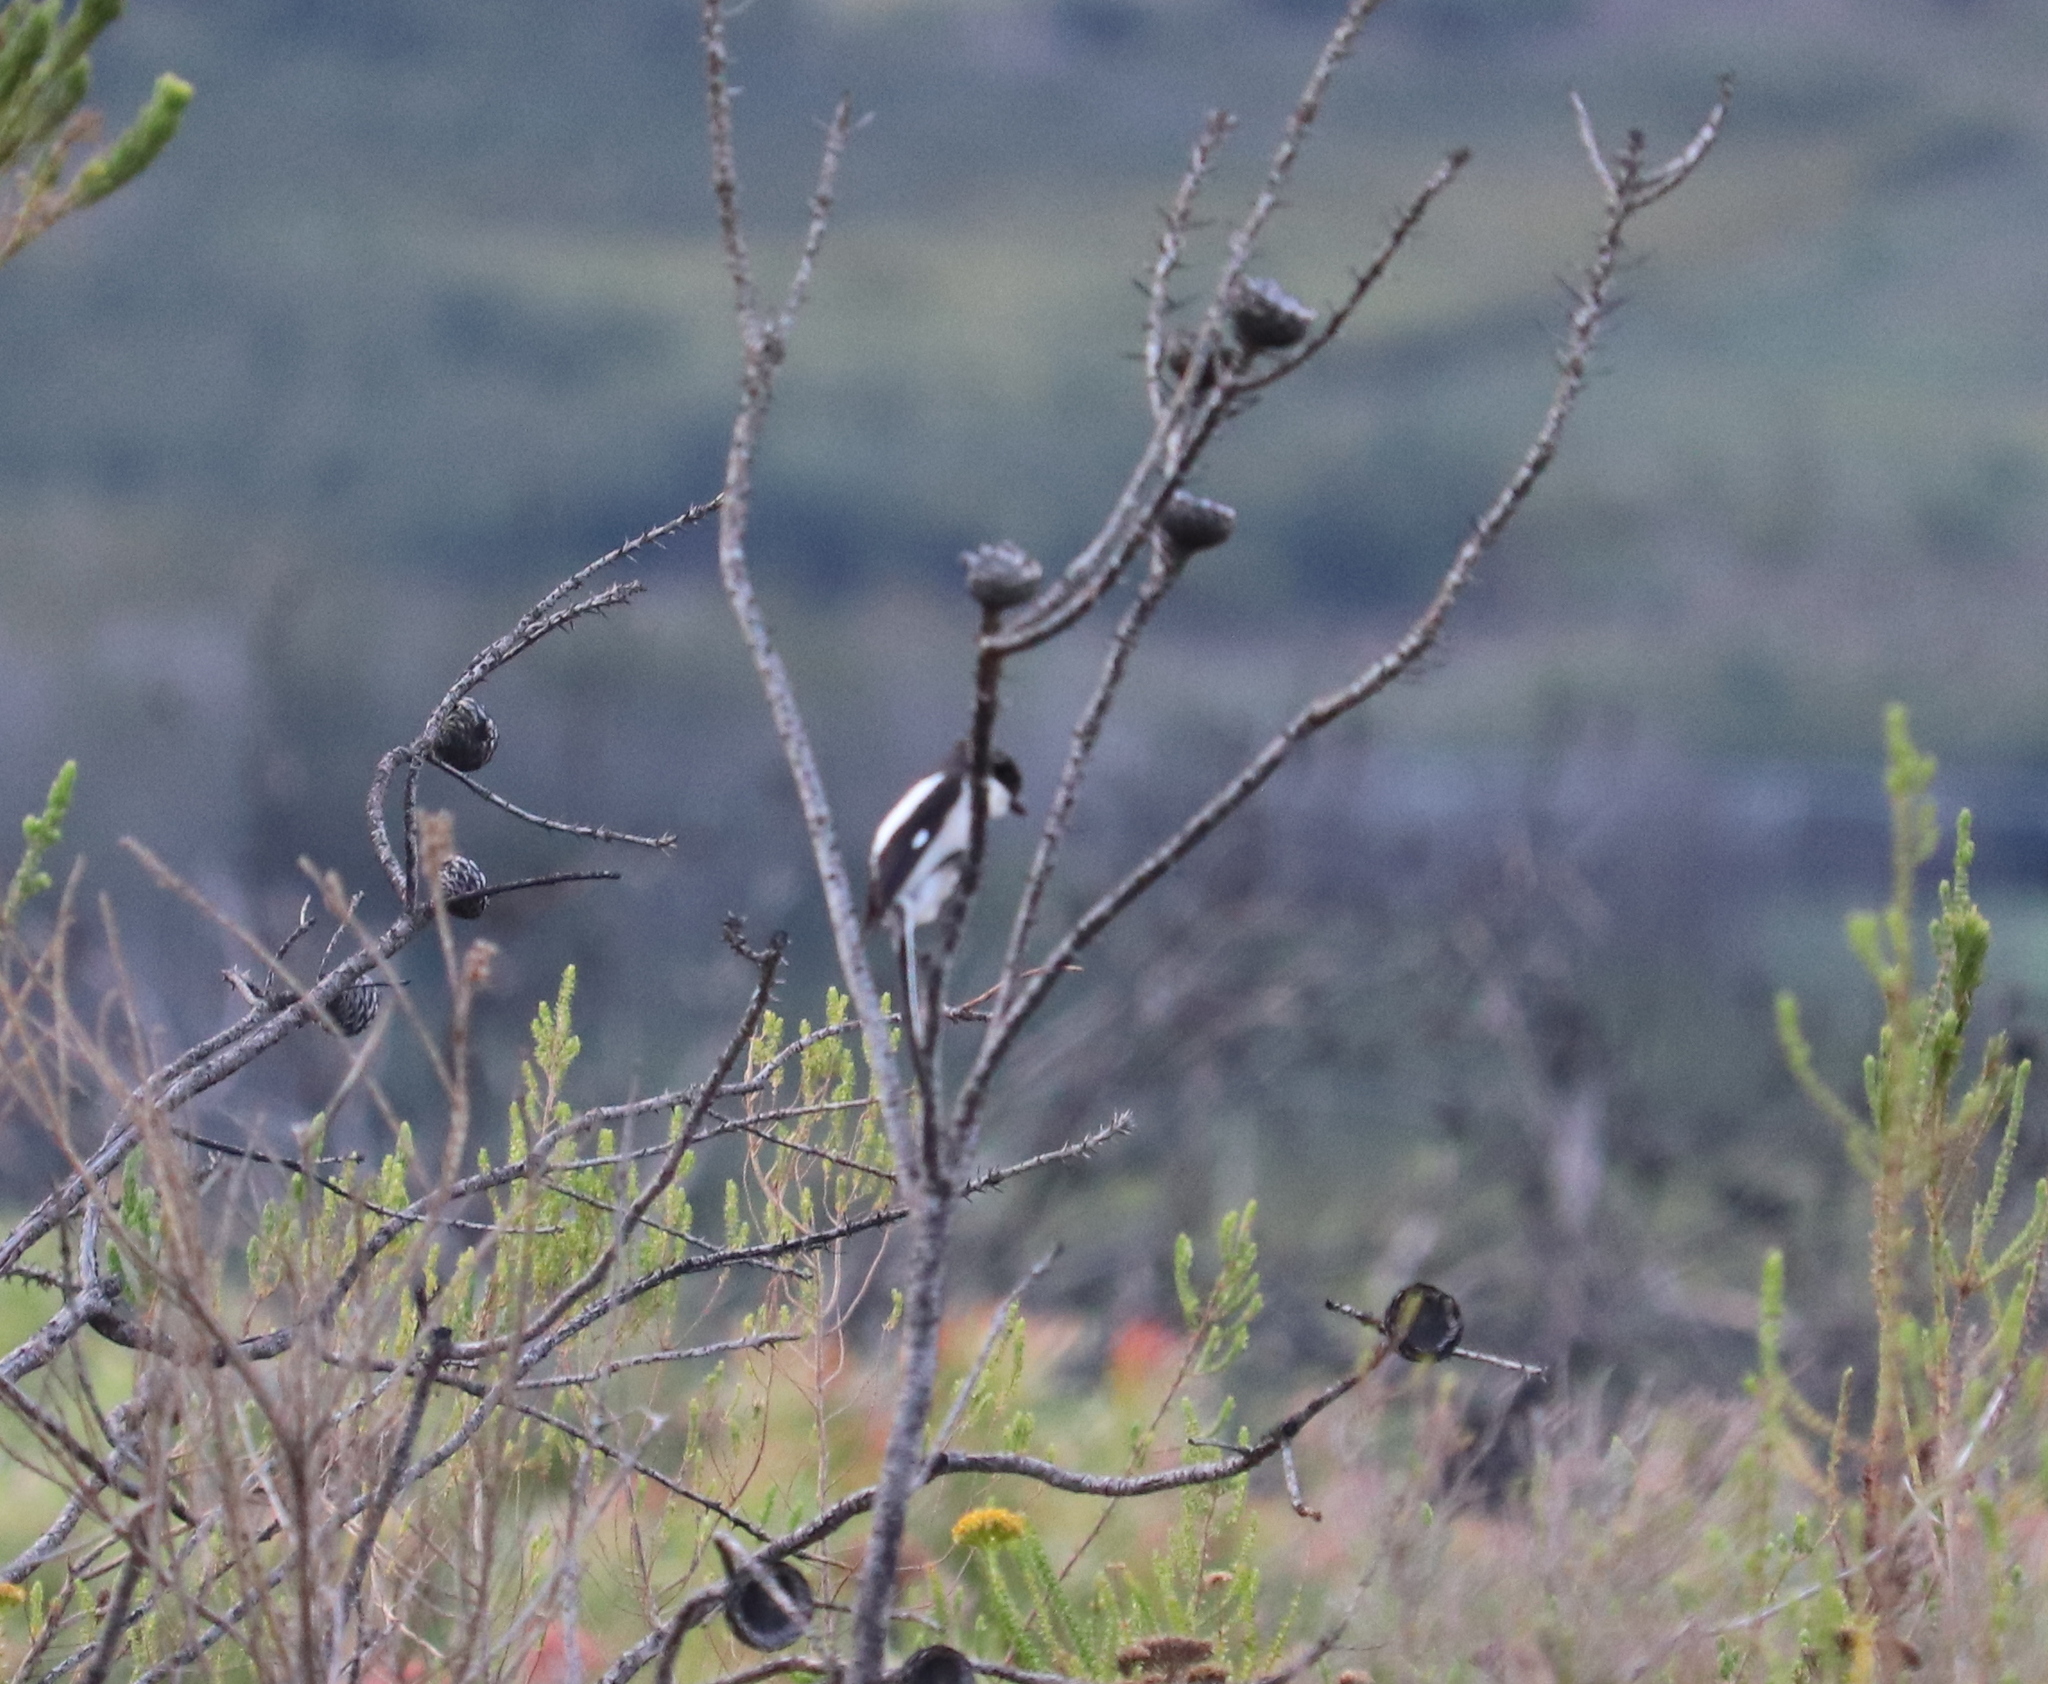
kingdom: Animalia
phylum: Chordata
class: Aves
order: Passeriformes
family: Laniidae
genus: Lanius
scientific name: Lanius collaris
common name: Southern fiscal
